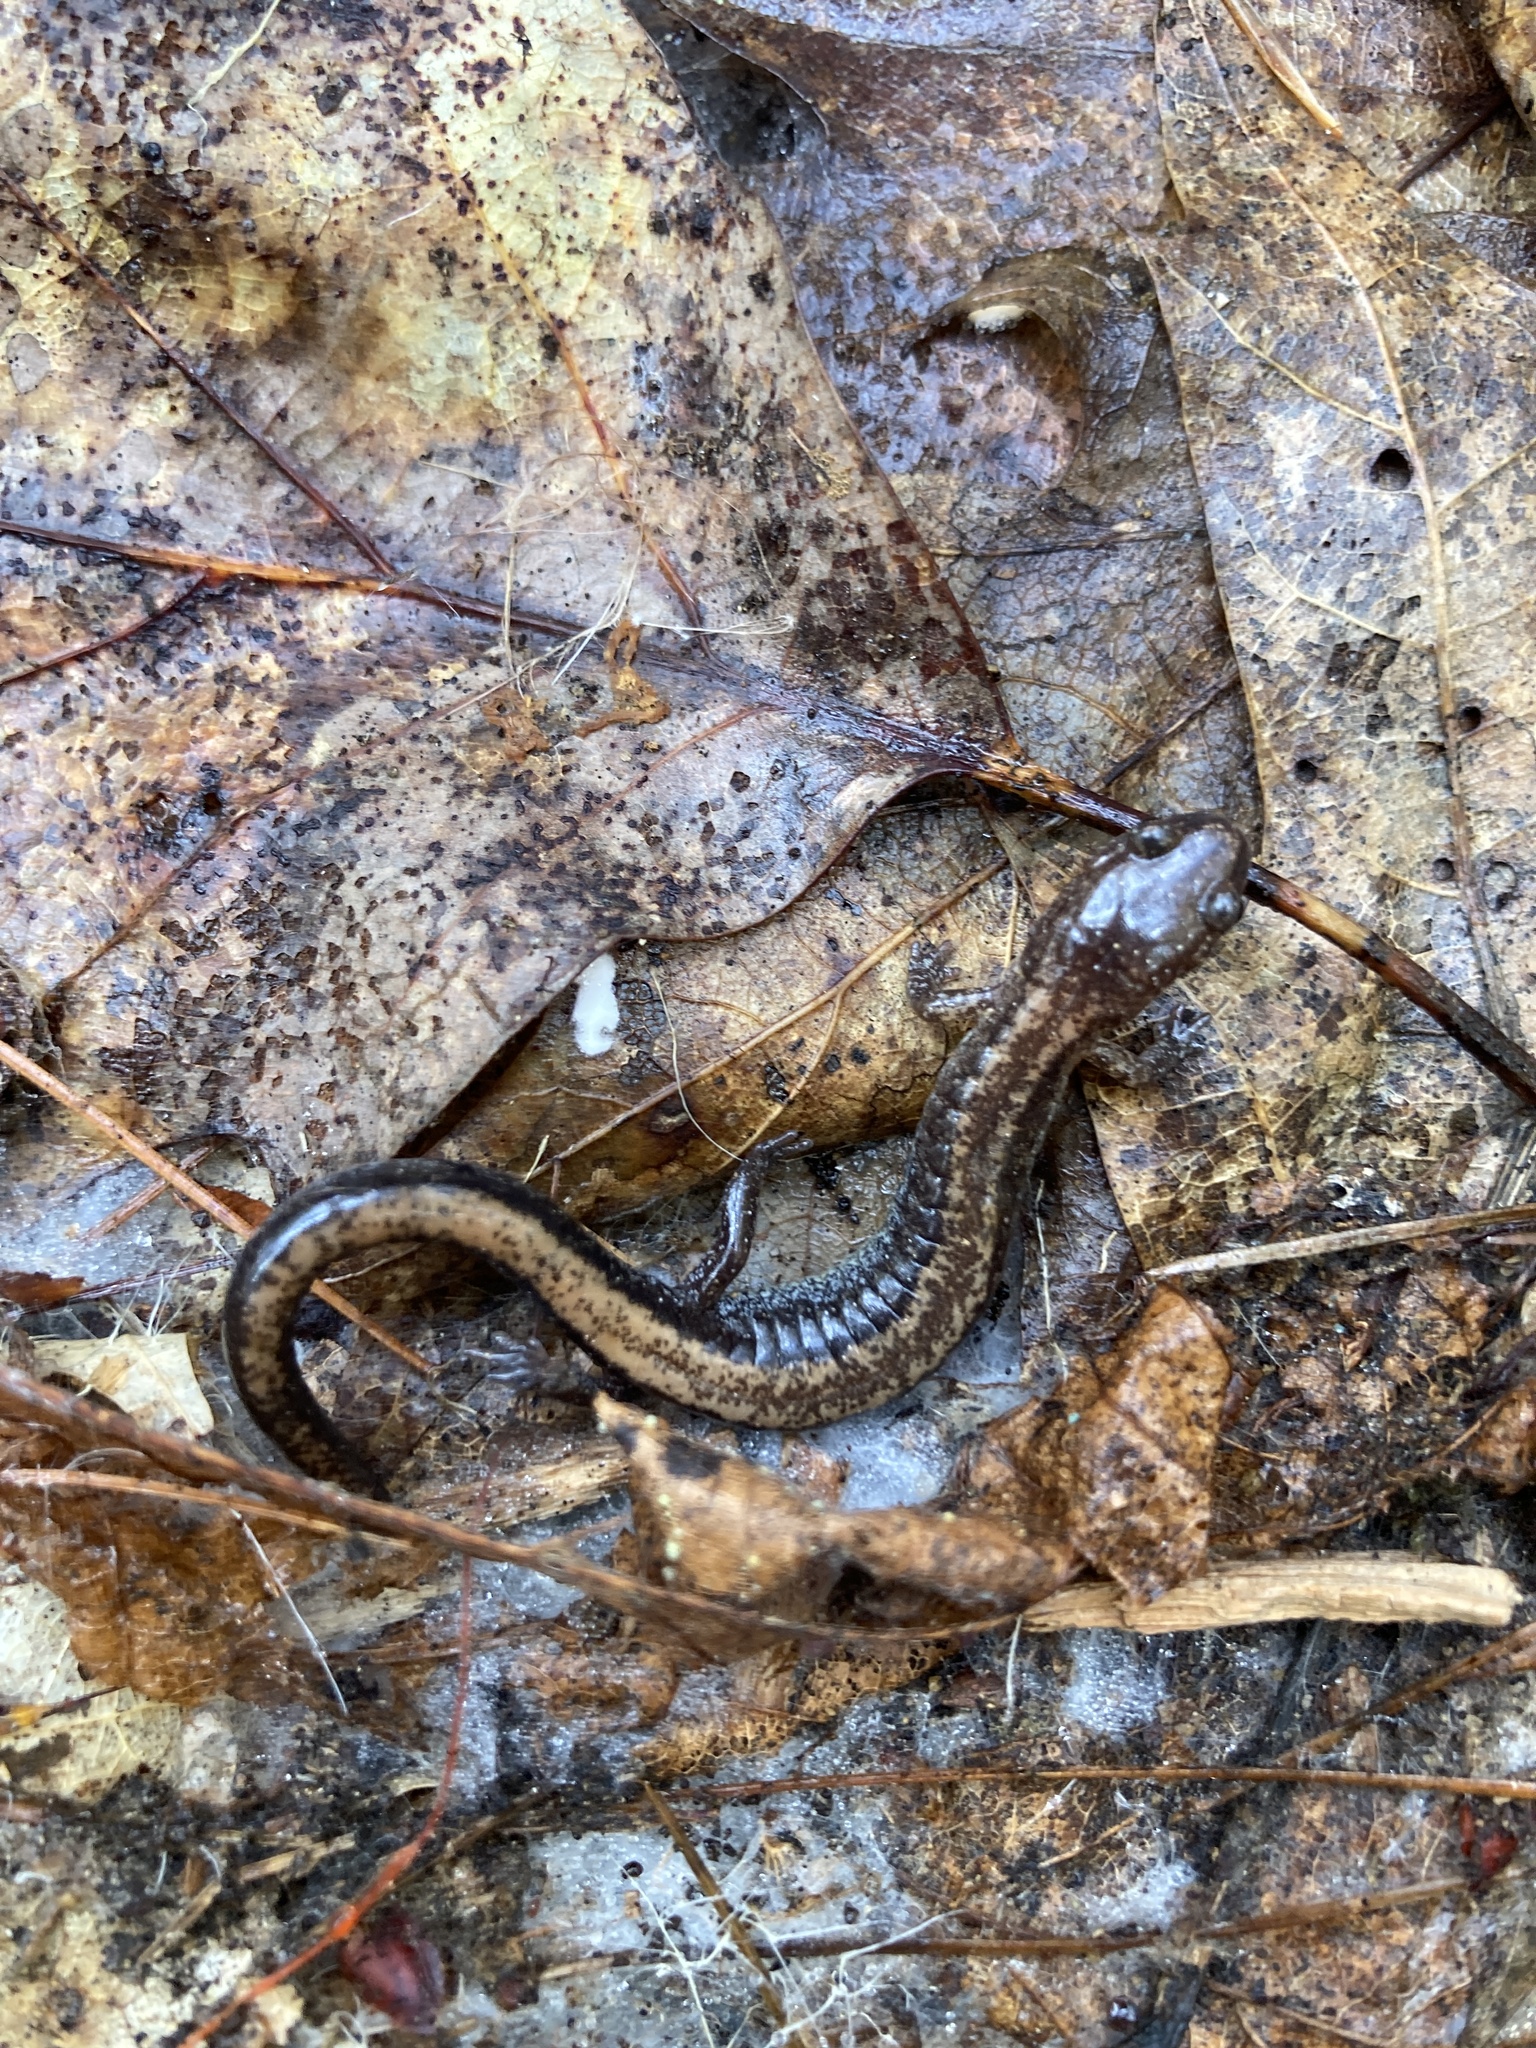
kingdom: Animalia
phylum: Chordata
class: Amphibia
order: Caudata
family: Plethodontidae
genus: Plethodon
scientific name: Plethodon cinereus
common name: Redback salamander
